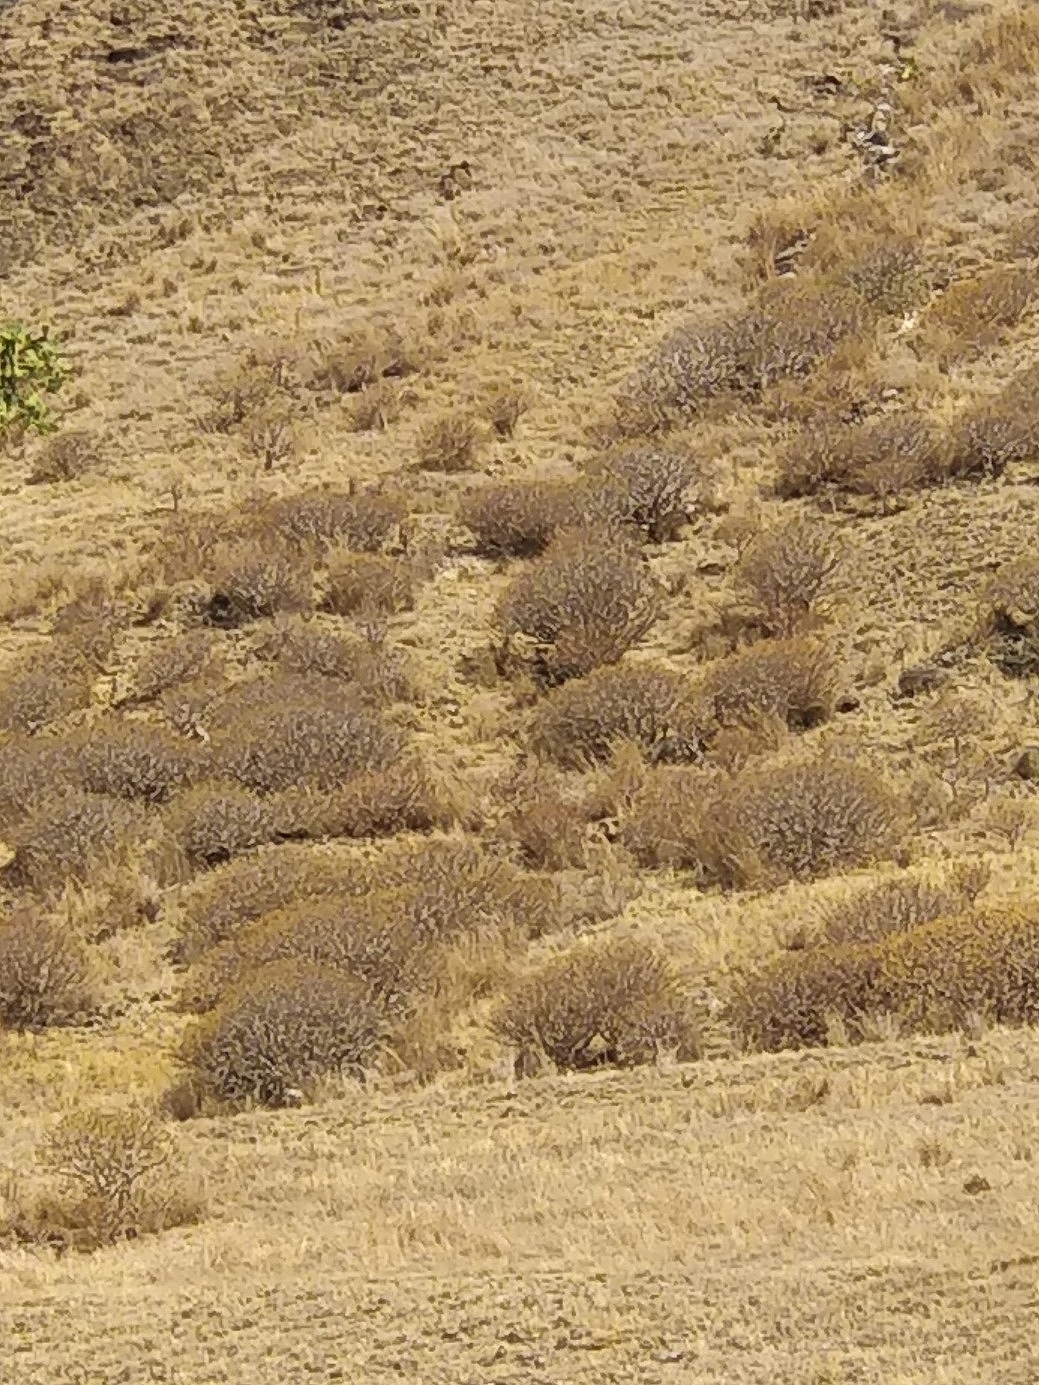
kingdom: Plantae
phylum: Tracheophyta
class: Magnoliopsida
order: Malpighiales
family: Euphorbiaceae
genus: Euphorbia
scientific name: Euphorbia piscatoria
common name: Fish-stunning spurge
